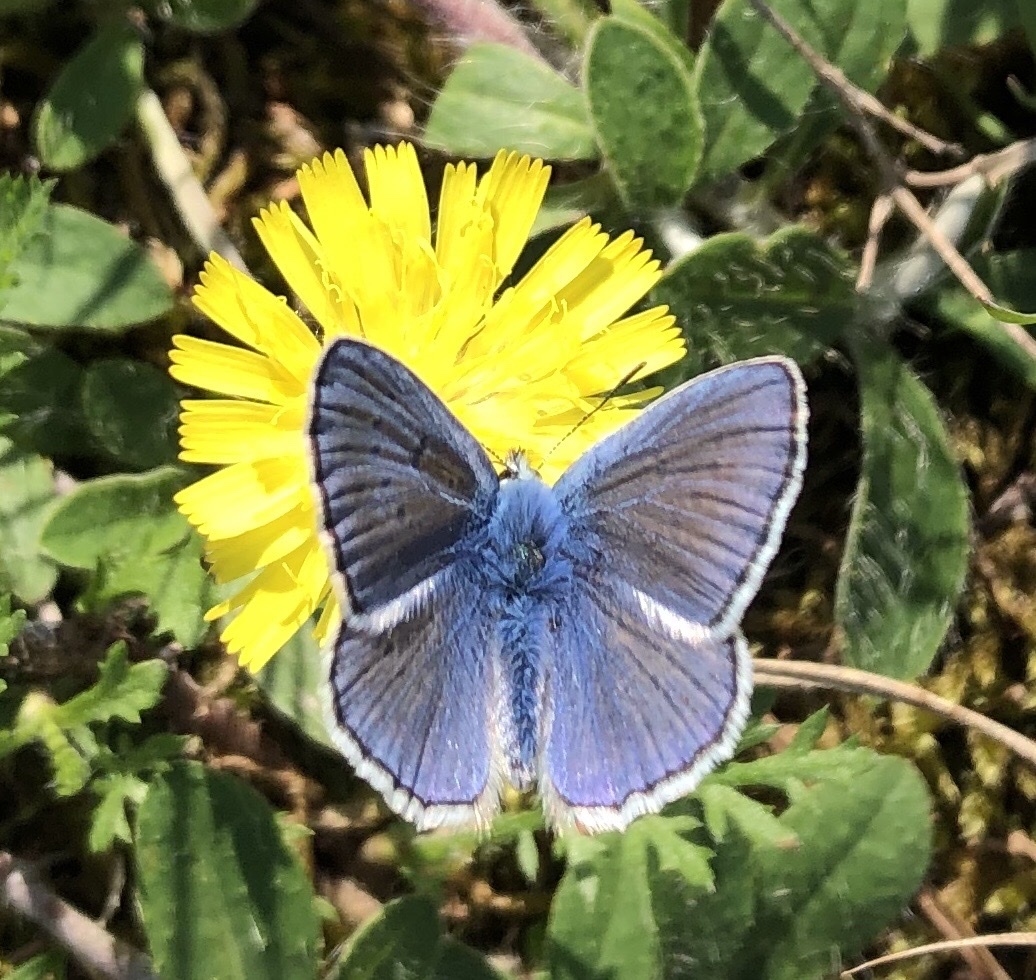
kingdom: Animalia
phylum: Arthropoda
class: Insecta
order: Lepidoptera
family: Lycaenidae
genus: Polyommatus
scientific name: Polyommatus icarus
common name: Common blue
